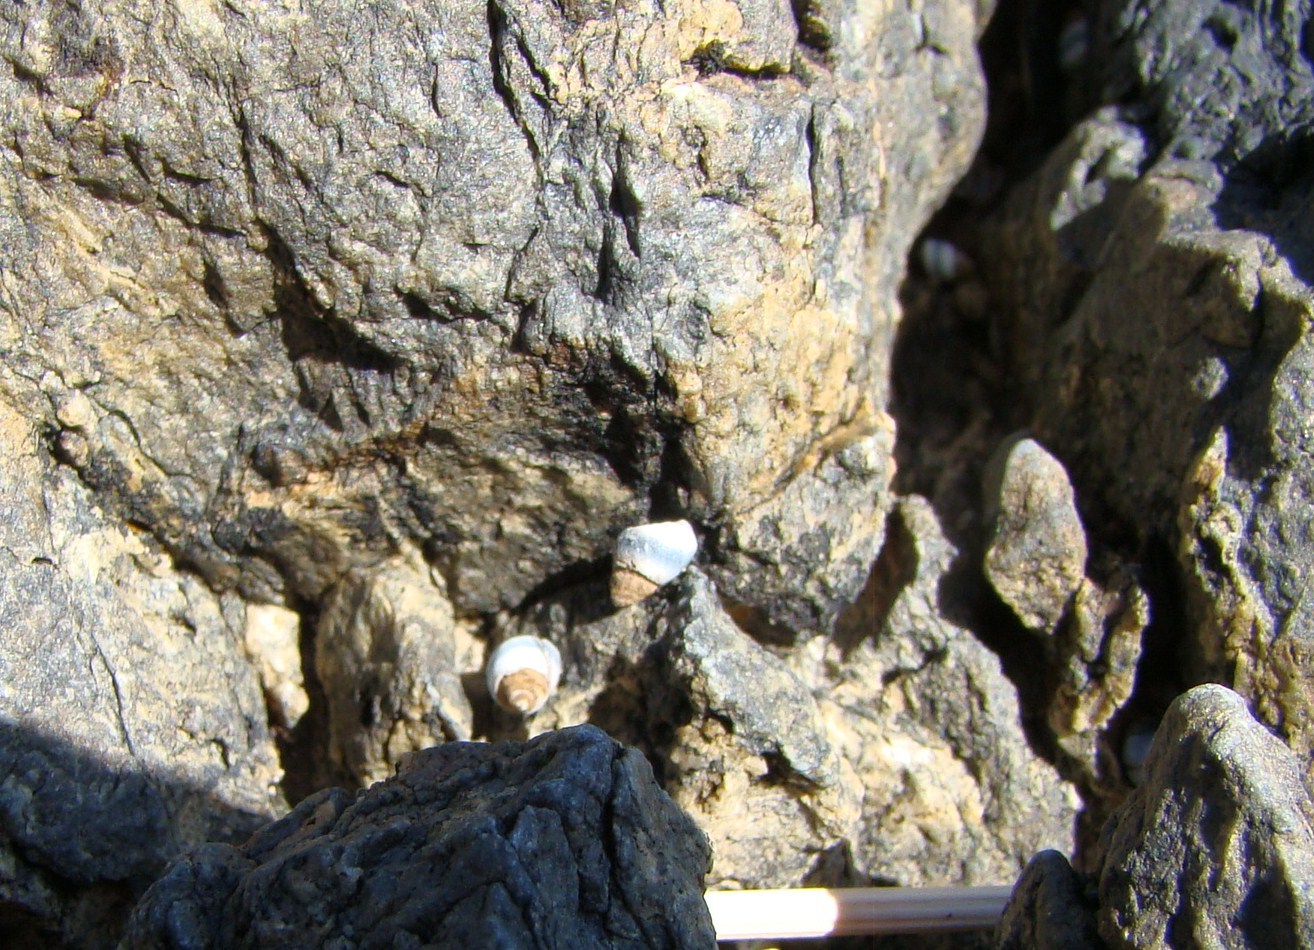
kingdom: Animalia
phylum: Mollusca
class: Gastropoda
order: Littorinimorpha
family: Littorinidae
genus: Austrolittorina
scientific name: Austrolittorina antipodum
